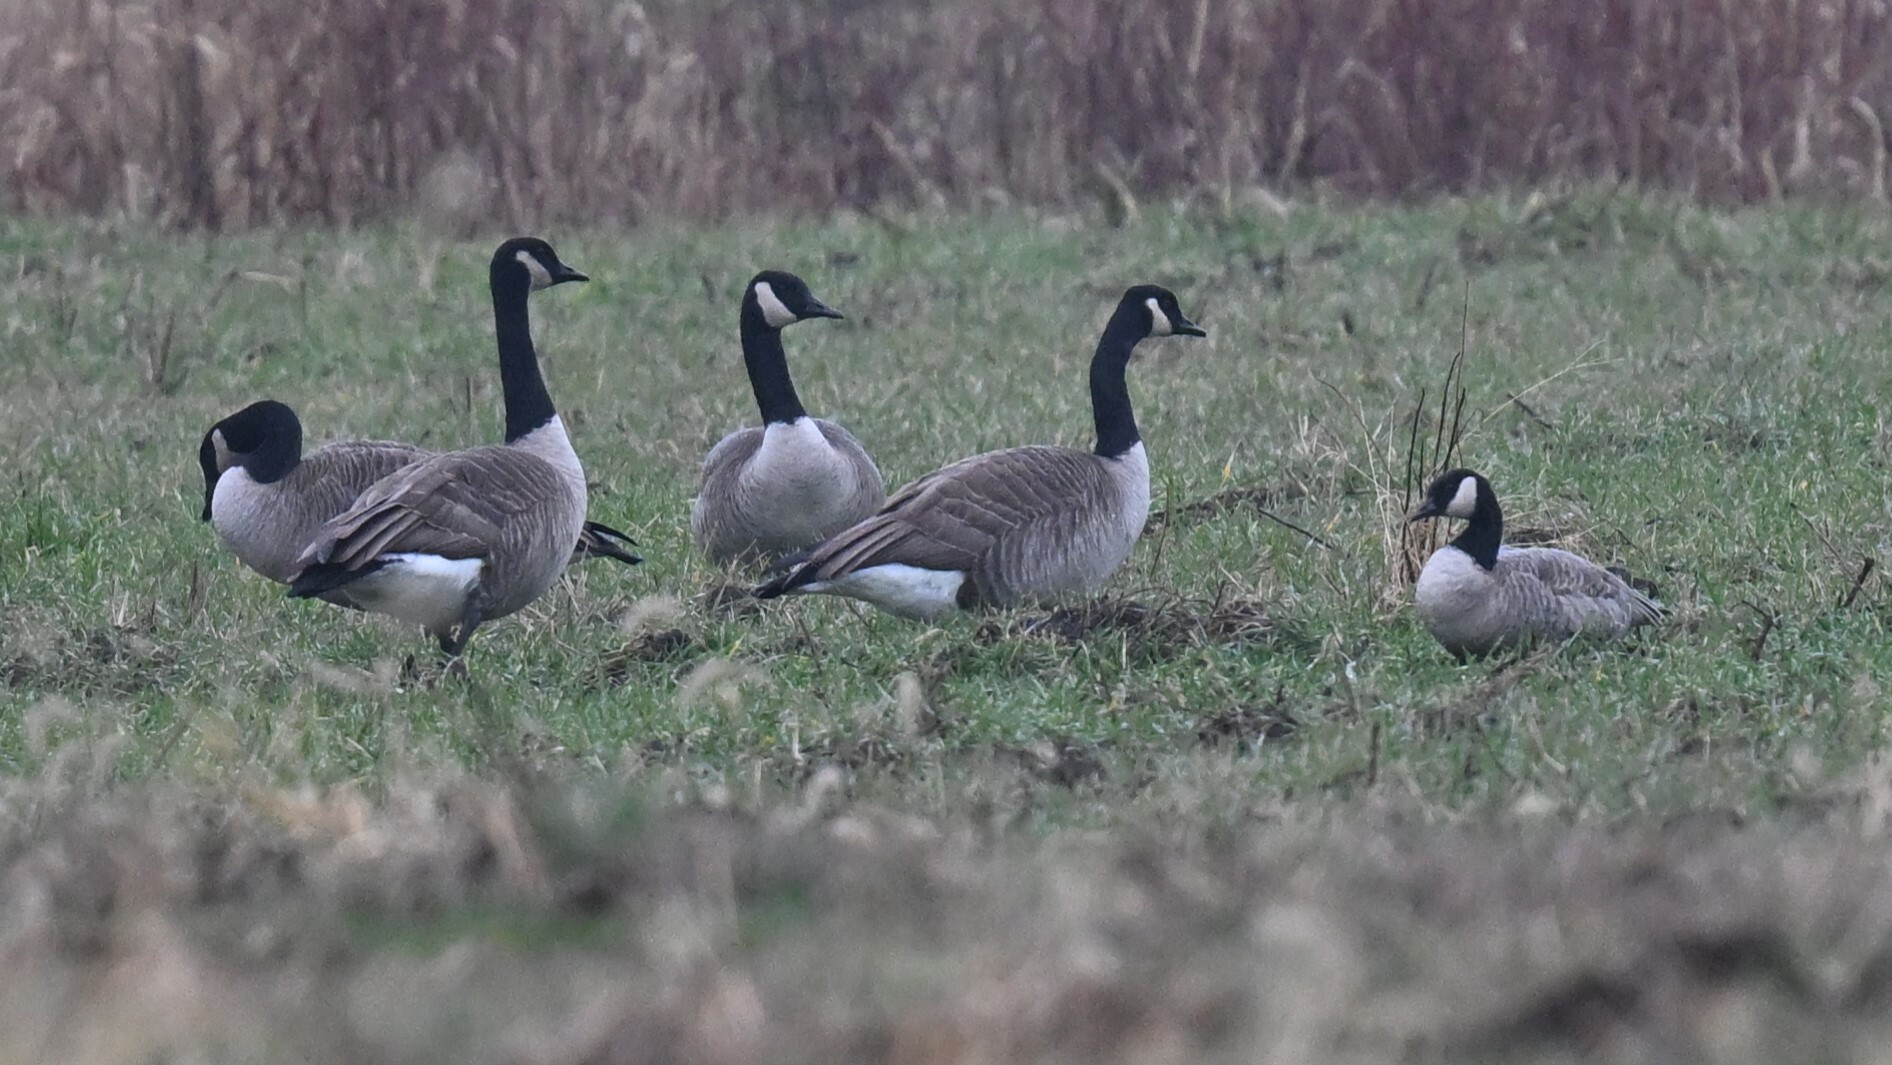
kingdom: Animalia
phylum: Chordata
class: Aves
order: Anseriformes
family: Anatidae
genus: Branta
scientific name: Branta hutchinsii
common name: Cackling goose
